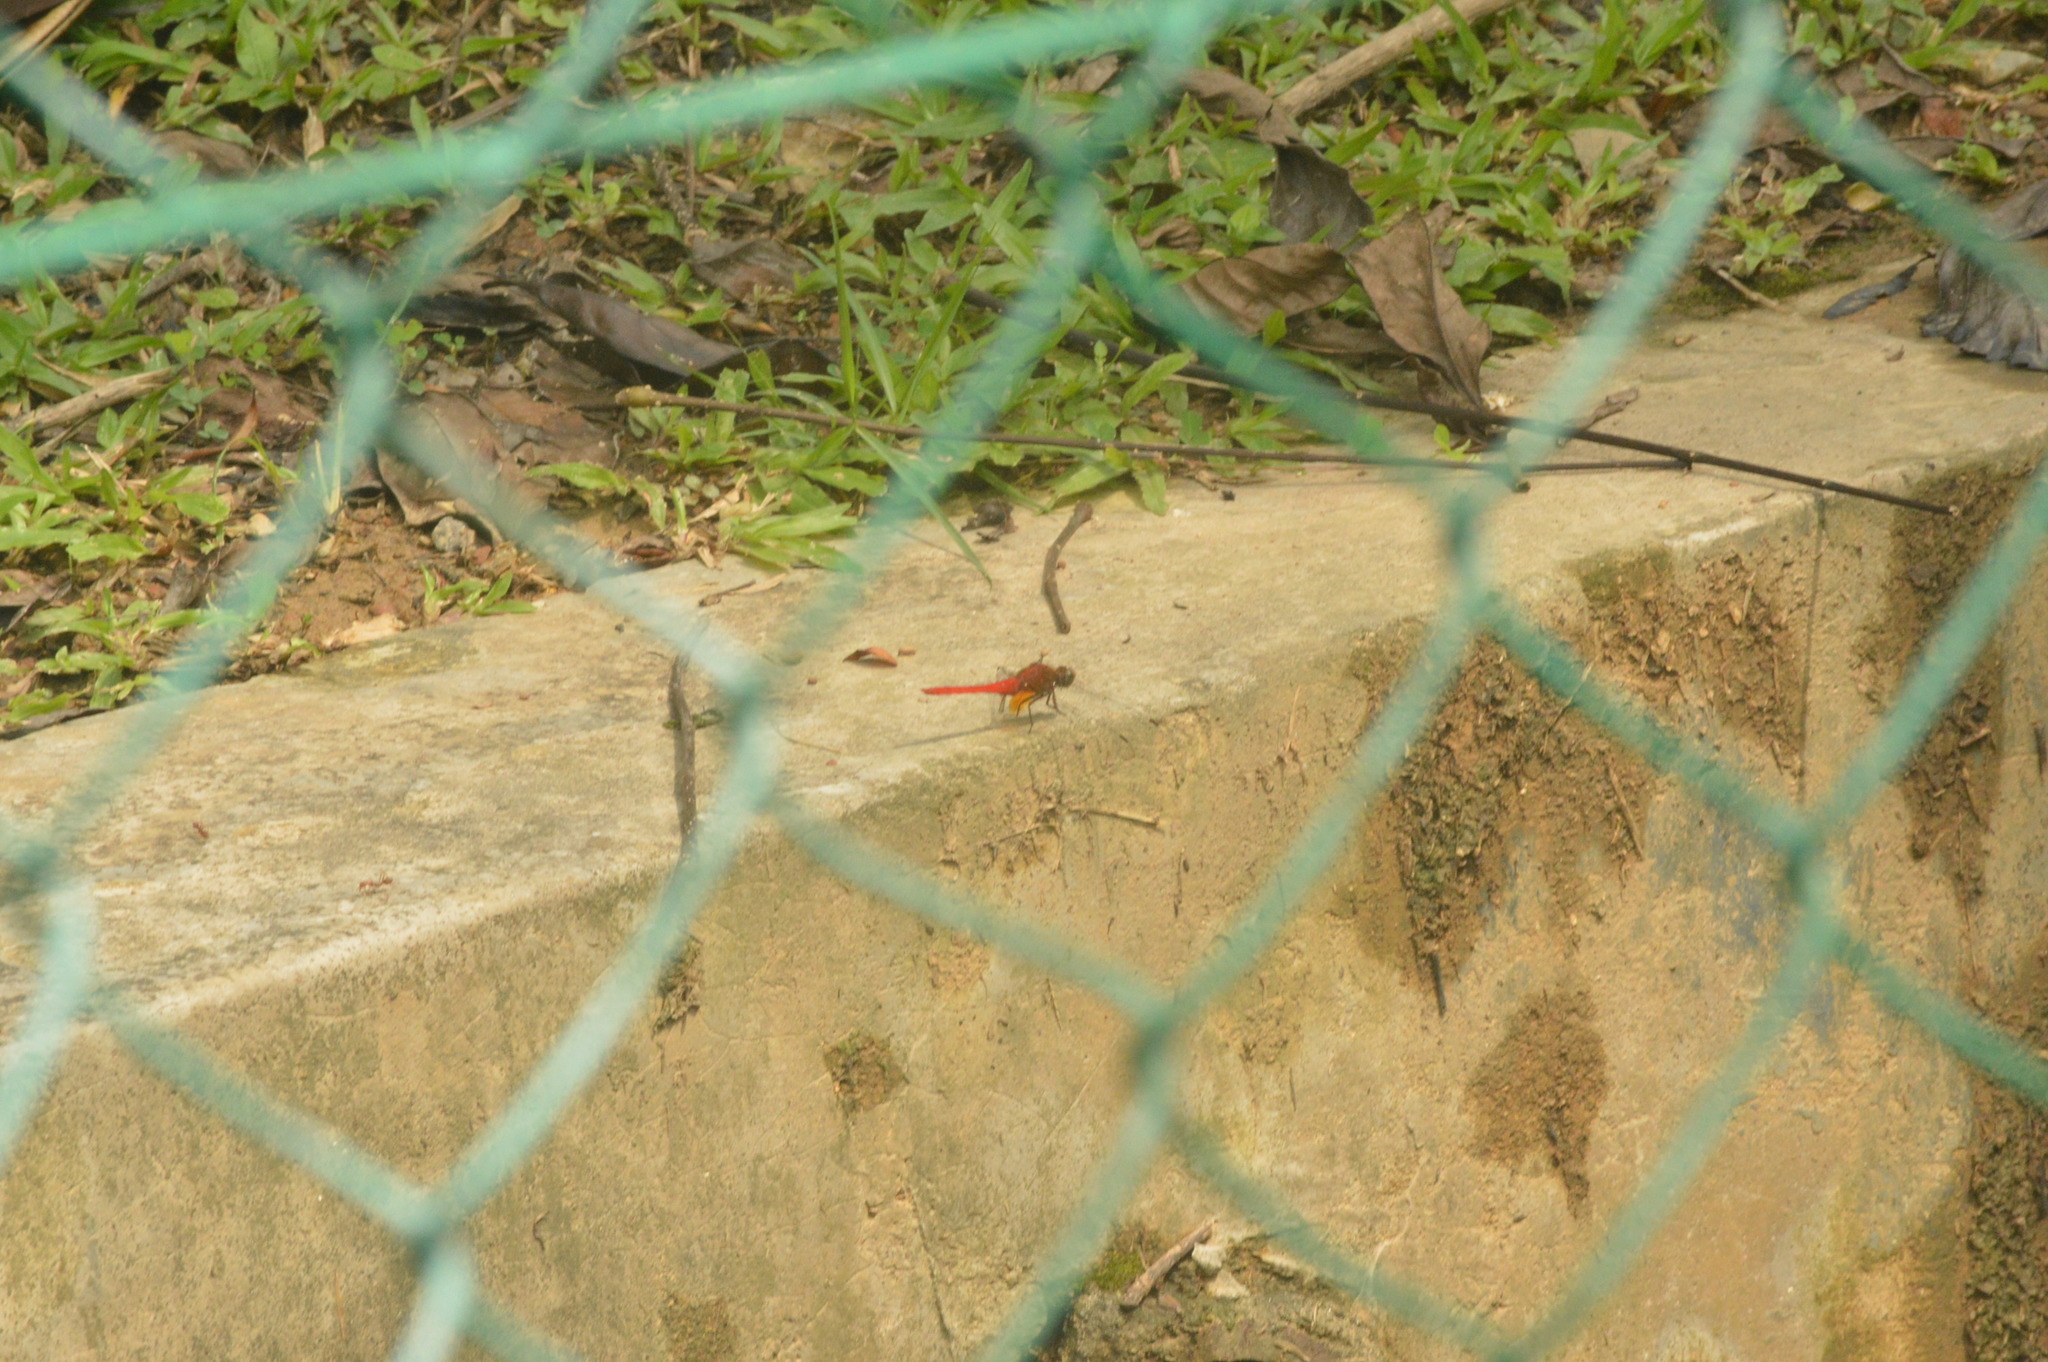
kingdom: Animalia
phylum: Arthropoda
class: Insecta
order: Odonata
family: Libellulidae
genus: Orthetrum
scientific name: Orthetrum testaceum
